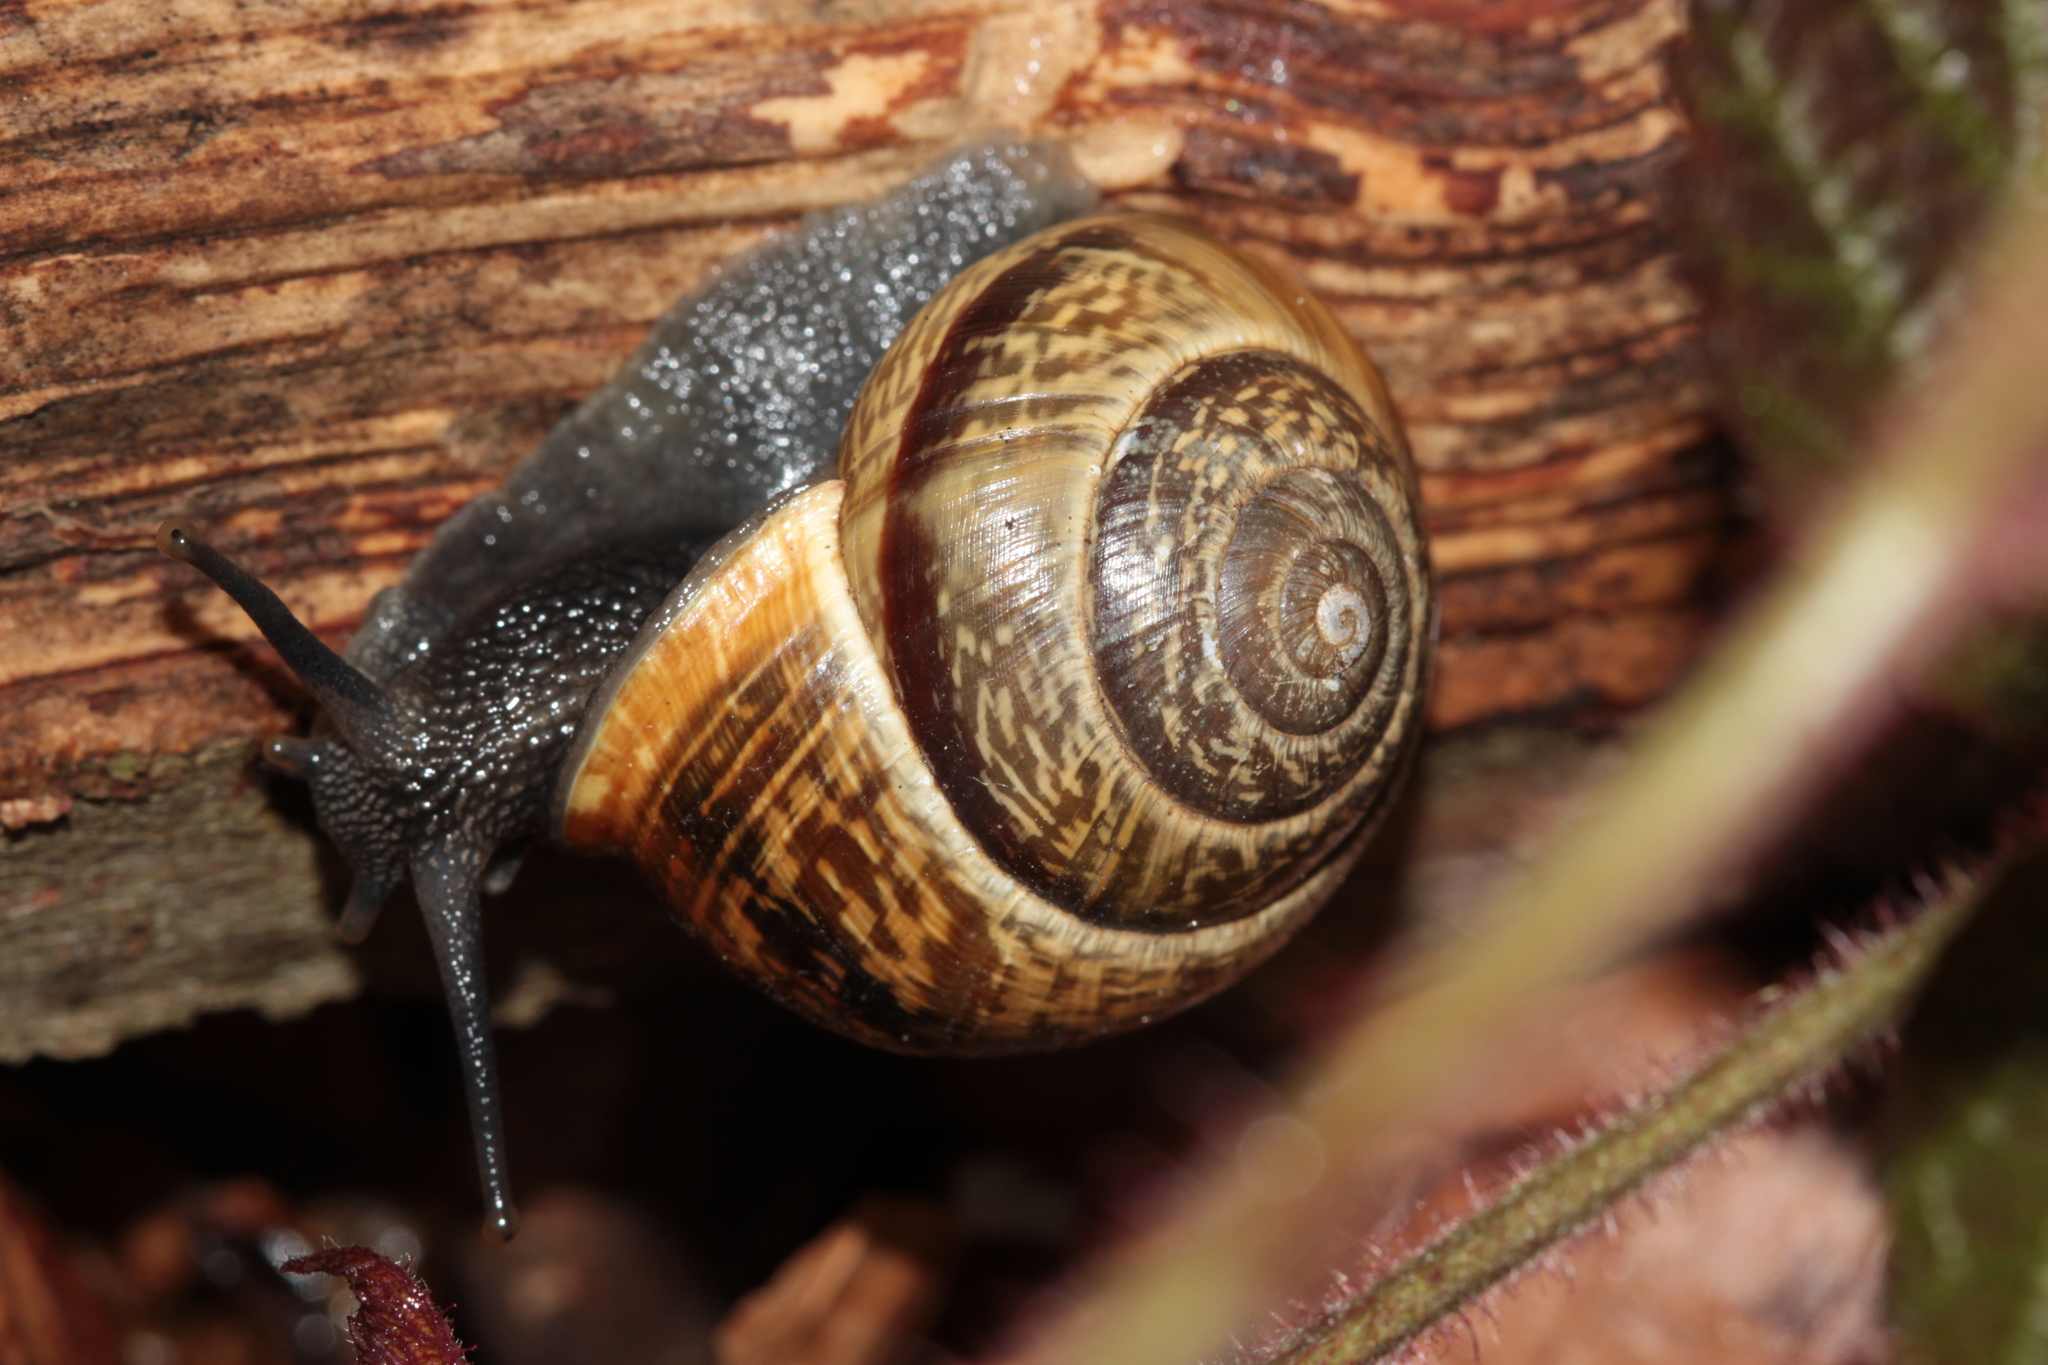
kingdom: Animalia
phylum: Mollusca
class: Gastropoda
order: Stylommatophora
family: Helicidae
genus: Arianta
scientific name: Arianta arbustorum
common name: Copse snail
